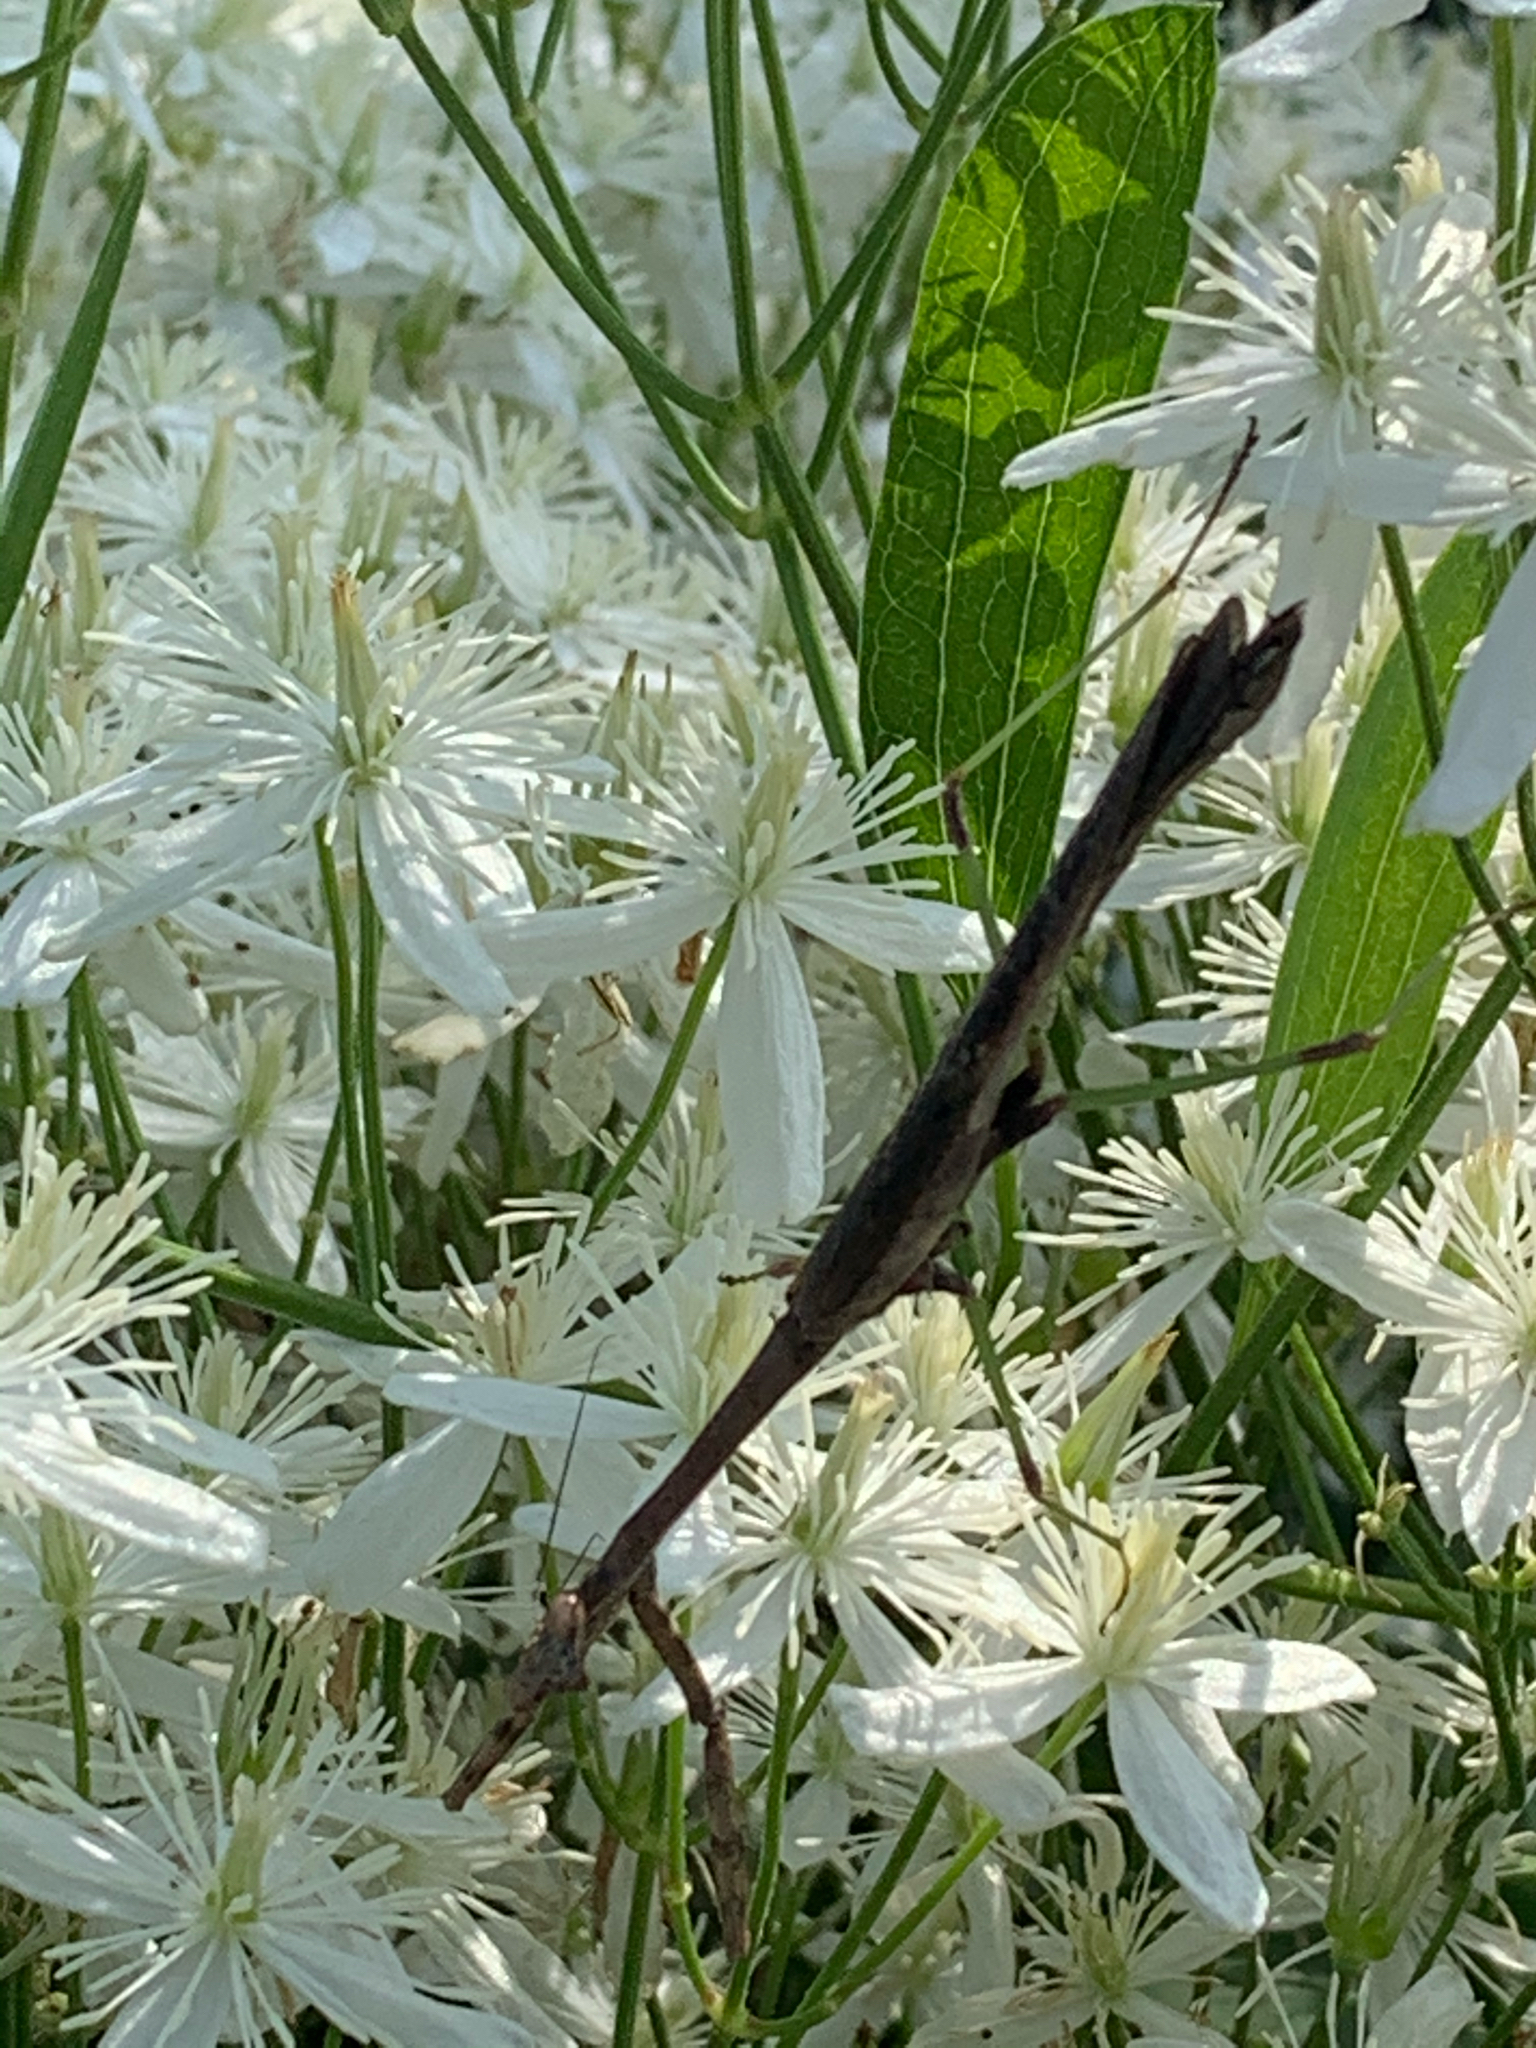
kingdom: Animalia
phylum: Arthropoda
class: Insecta
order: Mantodea
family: Mantidae
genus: Stagmomantis
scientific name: Stagmomantis carolina
